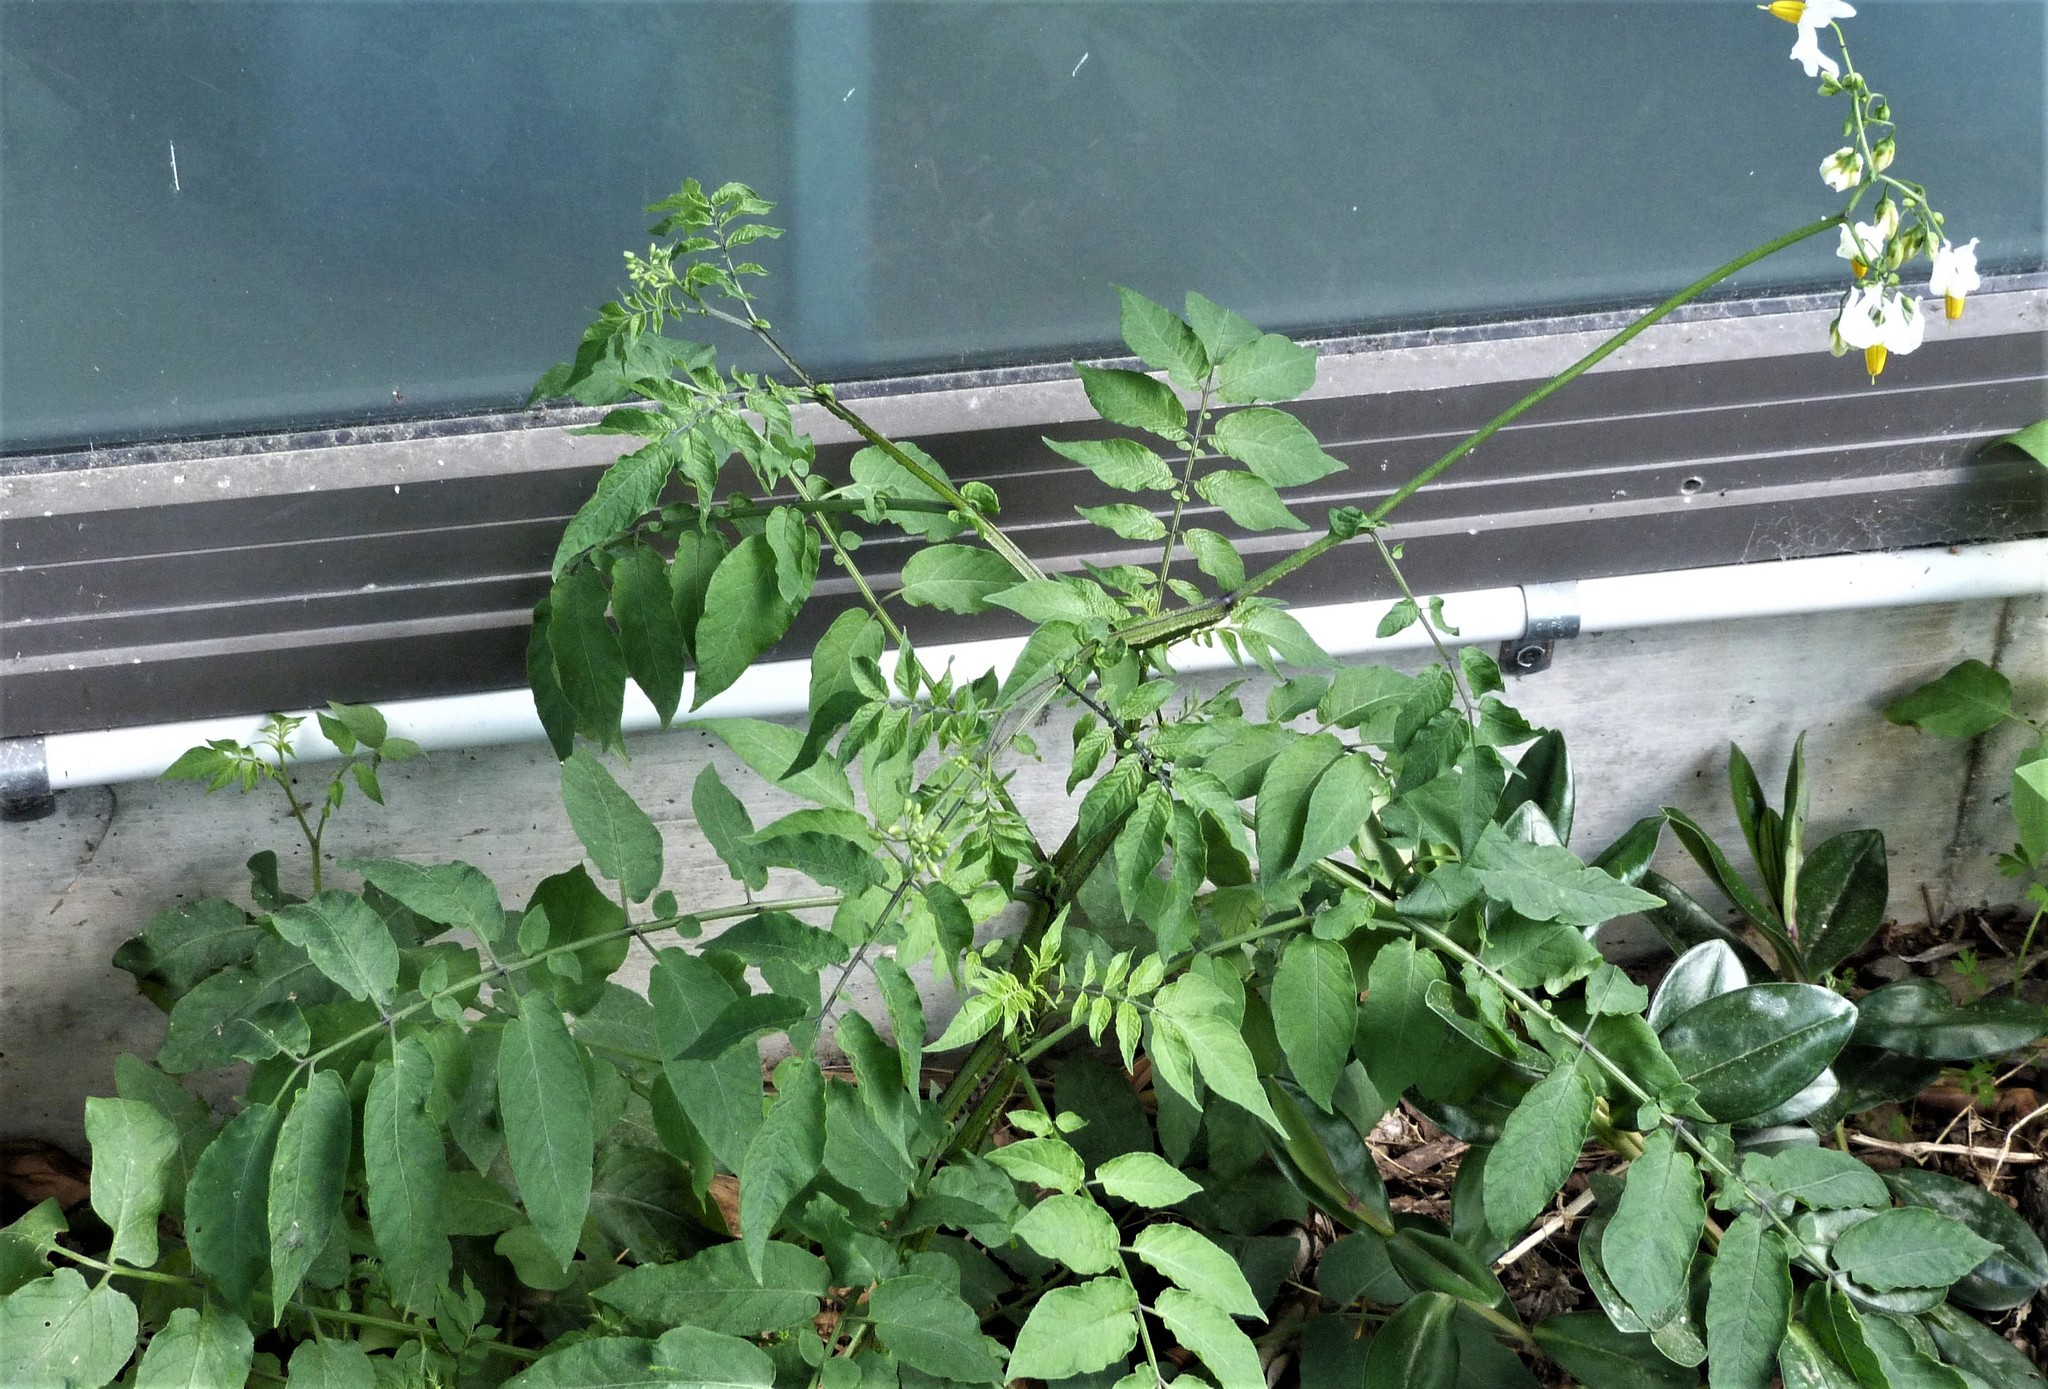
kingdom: Plantae
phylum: Tracheophyta
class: Magnoliopsida
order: Solanales
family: Solanaceae
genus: Solanum
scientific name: Solanum chacoense
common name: Chaco potato
